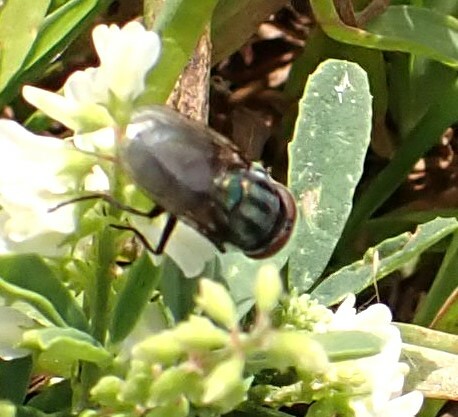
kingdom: Animalia
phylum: Arthropoda
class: Insecta
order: Diptera
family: Calliphoridae
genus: Cochliomyia
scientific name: Cochliomyia macellaria
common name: Secondary screwworm
